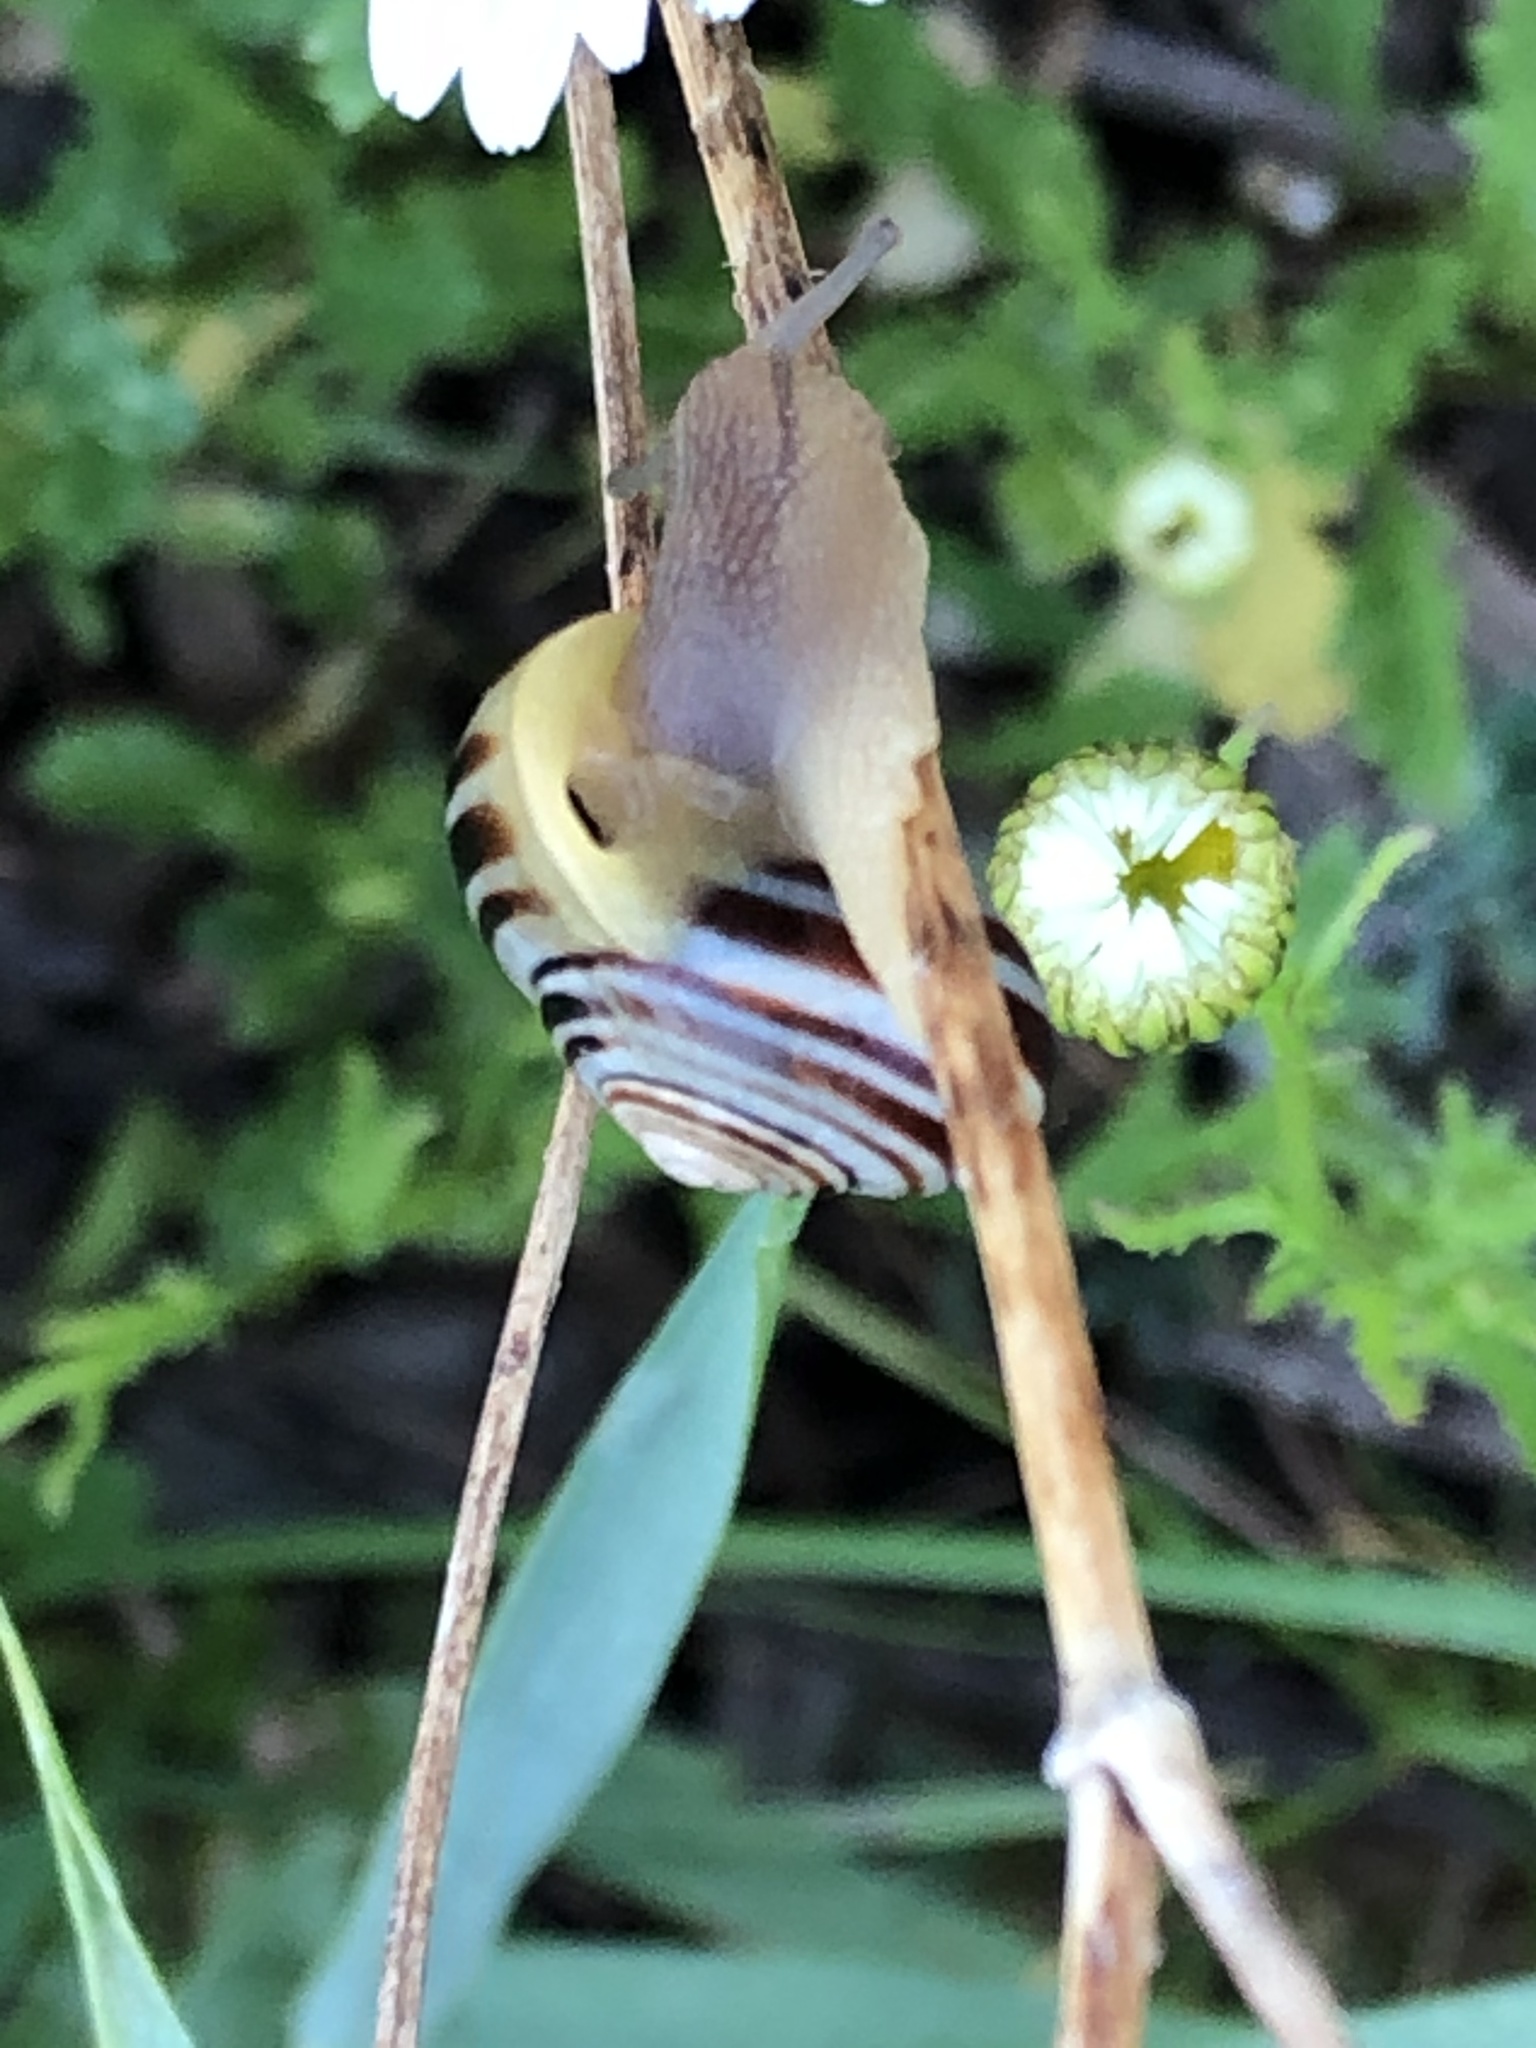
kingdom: Animalia
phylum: Mollusca
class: Gastropoda
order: Stylommatophora
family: Helicidae
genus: Cepaea
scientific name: Cepaea
